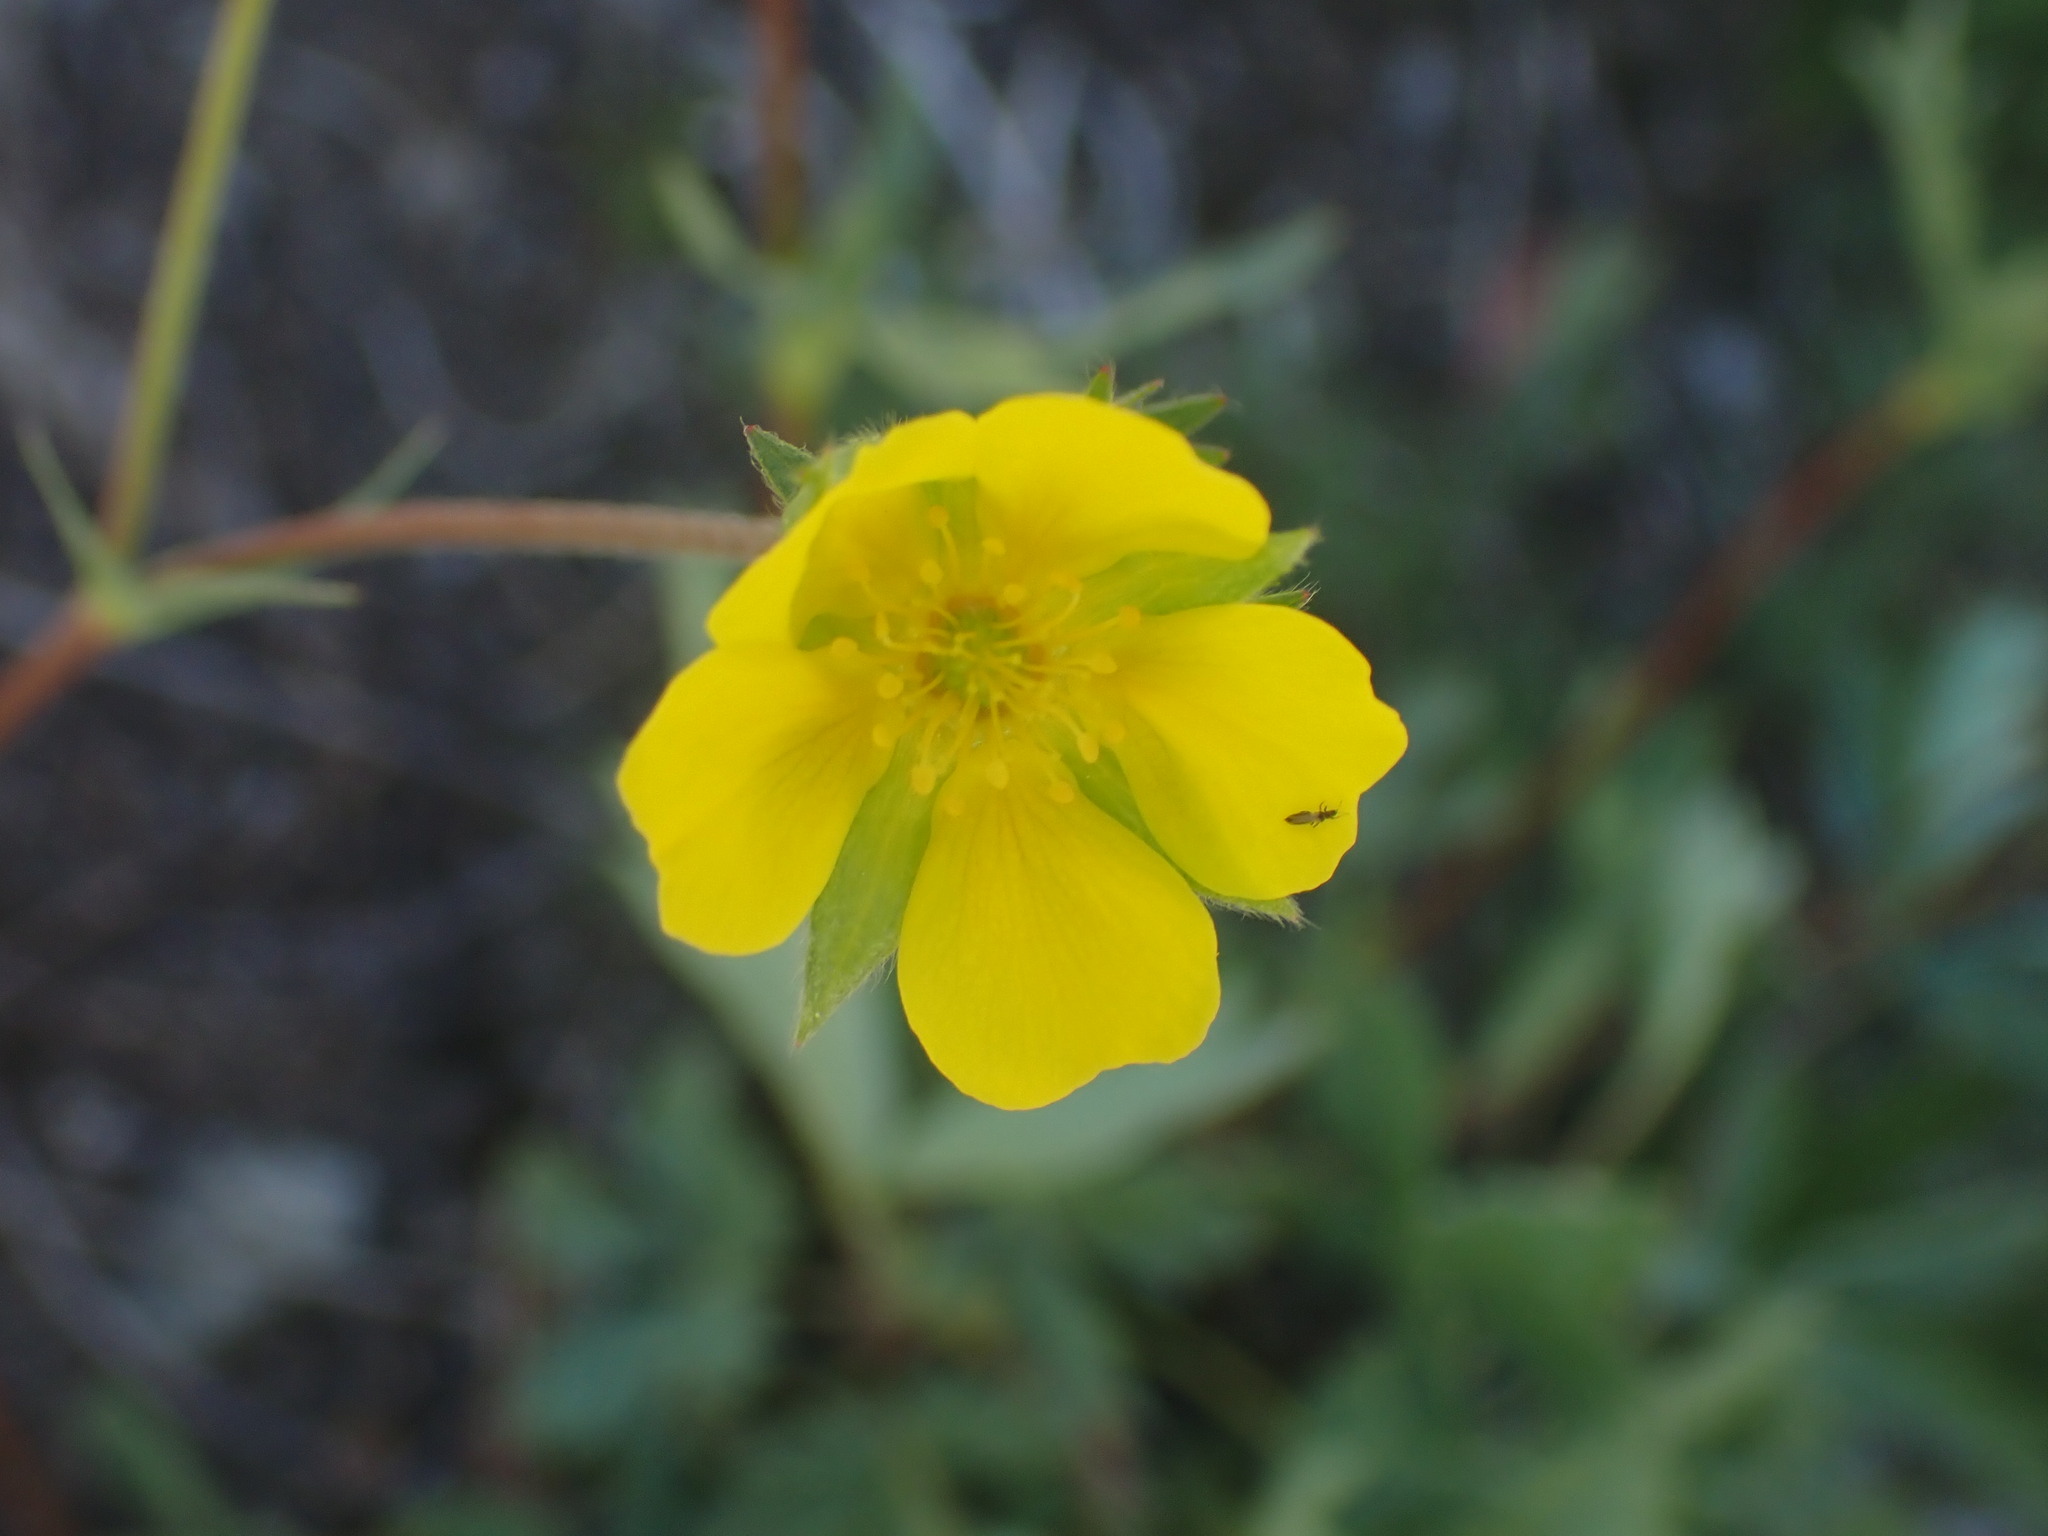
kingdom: Plantae
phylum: Tracheophyta
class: Magnoliopsida
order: Rosales
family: Rosaceae
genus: Potentilla
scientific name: Potentilla glaucophylla
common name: Blue-leaved cinquefoil
